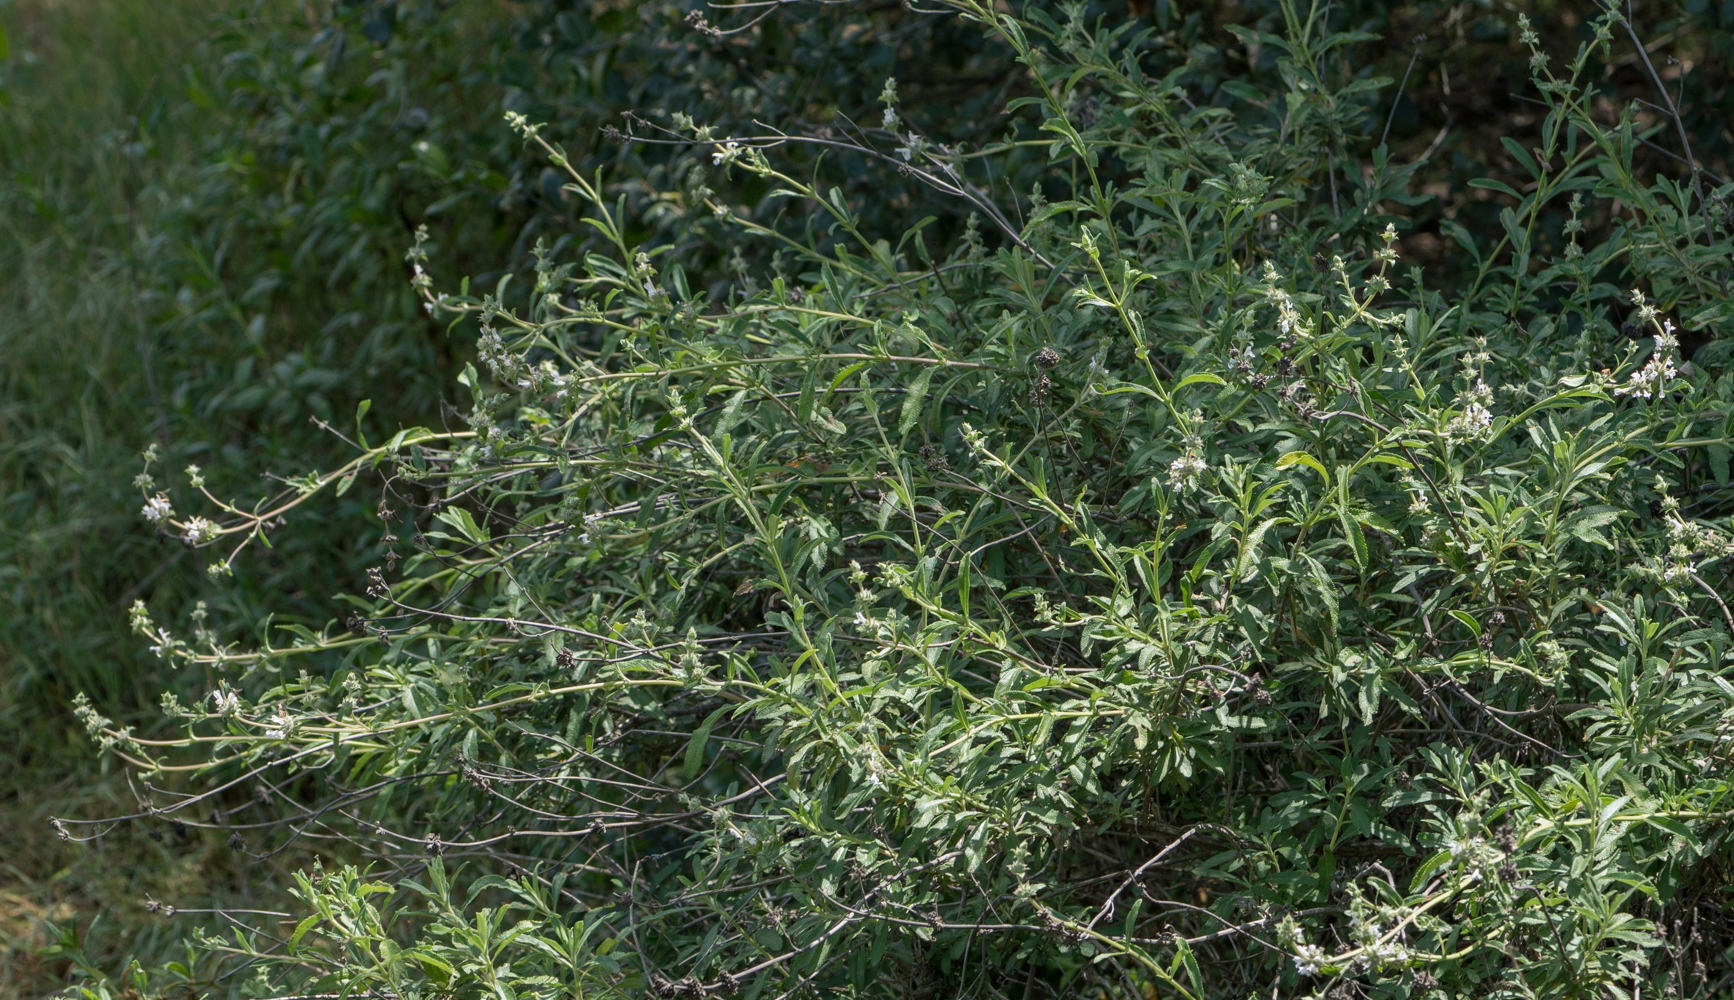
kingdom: Plantae
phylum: Tracheophyta
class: Magnoliopsida
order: Lamiales
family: Lamiaceae
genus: Salvia
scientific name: Salvia mellifera
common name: Black sage
